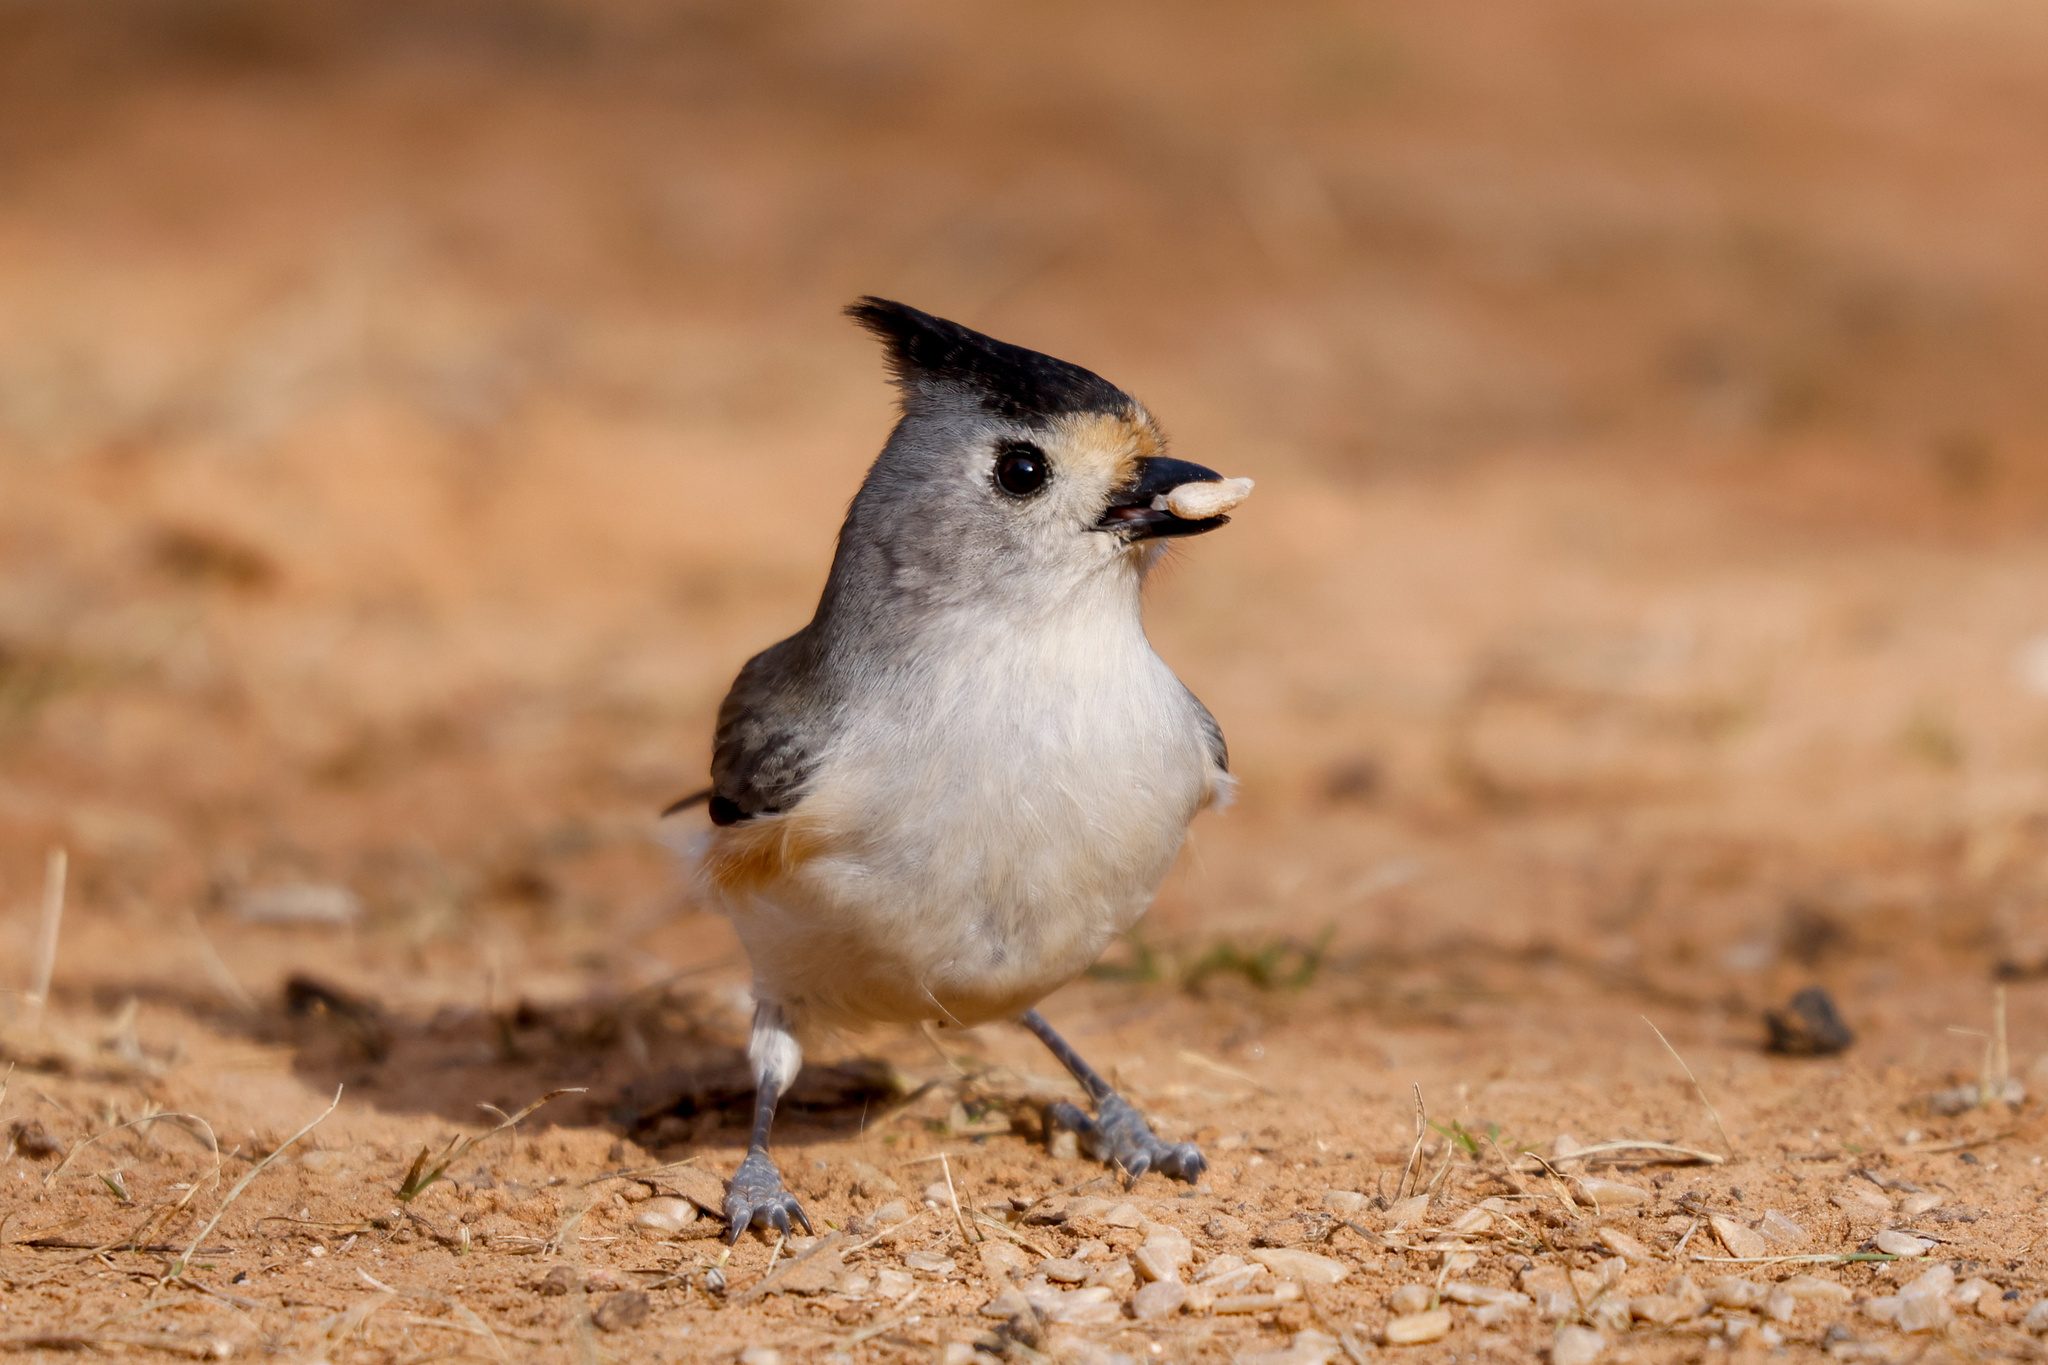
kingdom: Animalia
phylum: Chordata
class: Aves
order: Passeriformes
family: Paridae
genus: Baeolophus
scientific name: Baeolophus atricristatus
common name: Black-crested titmouse
